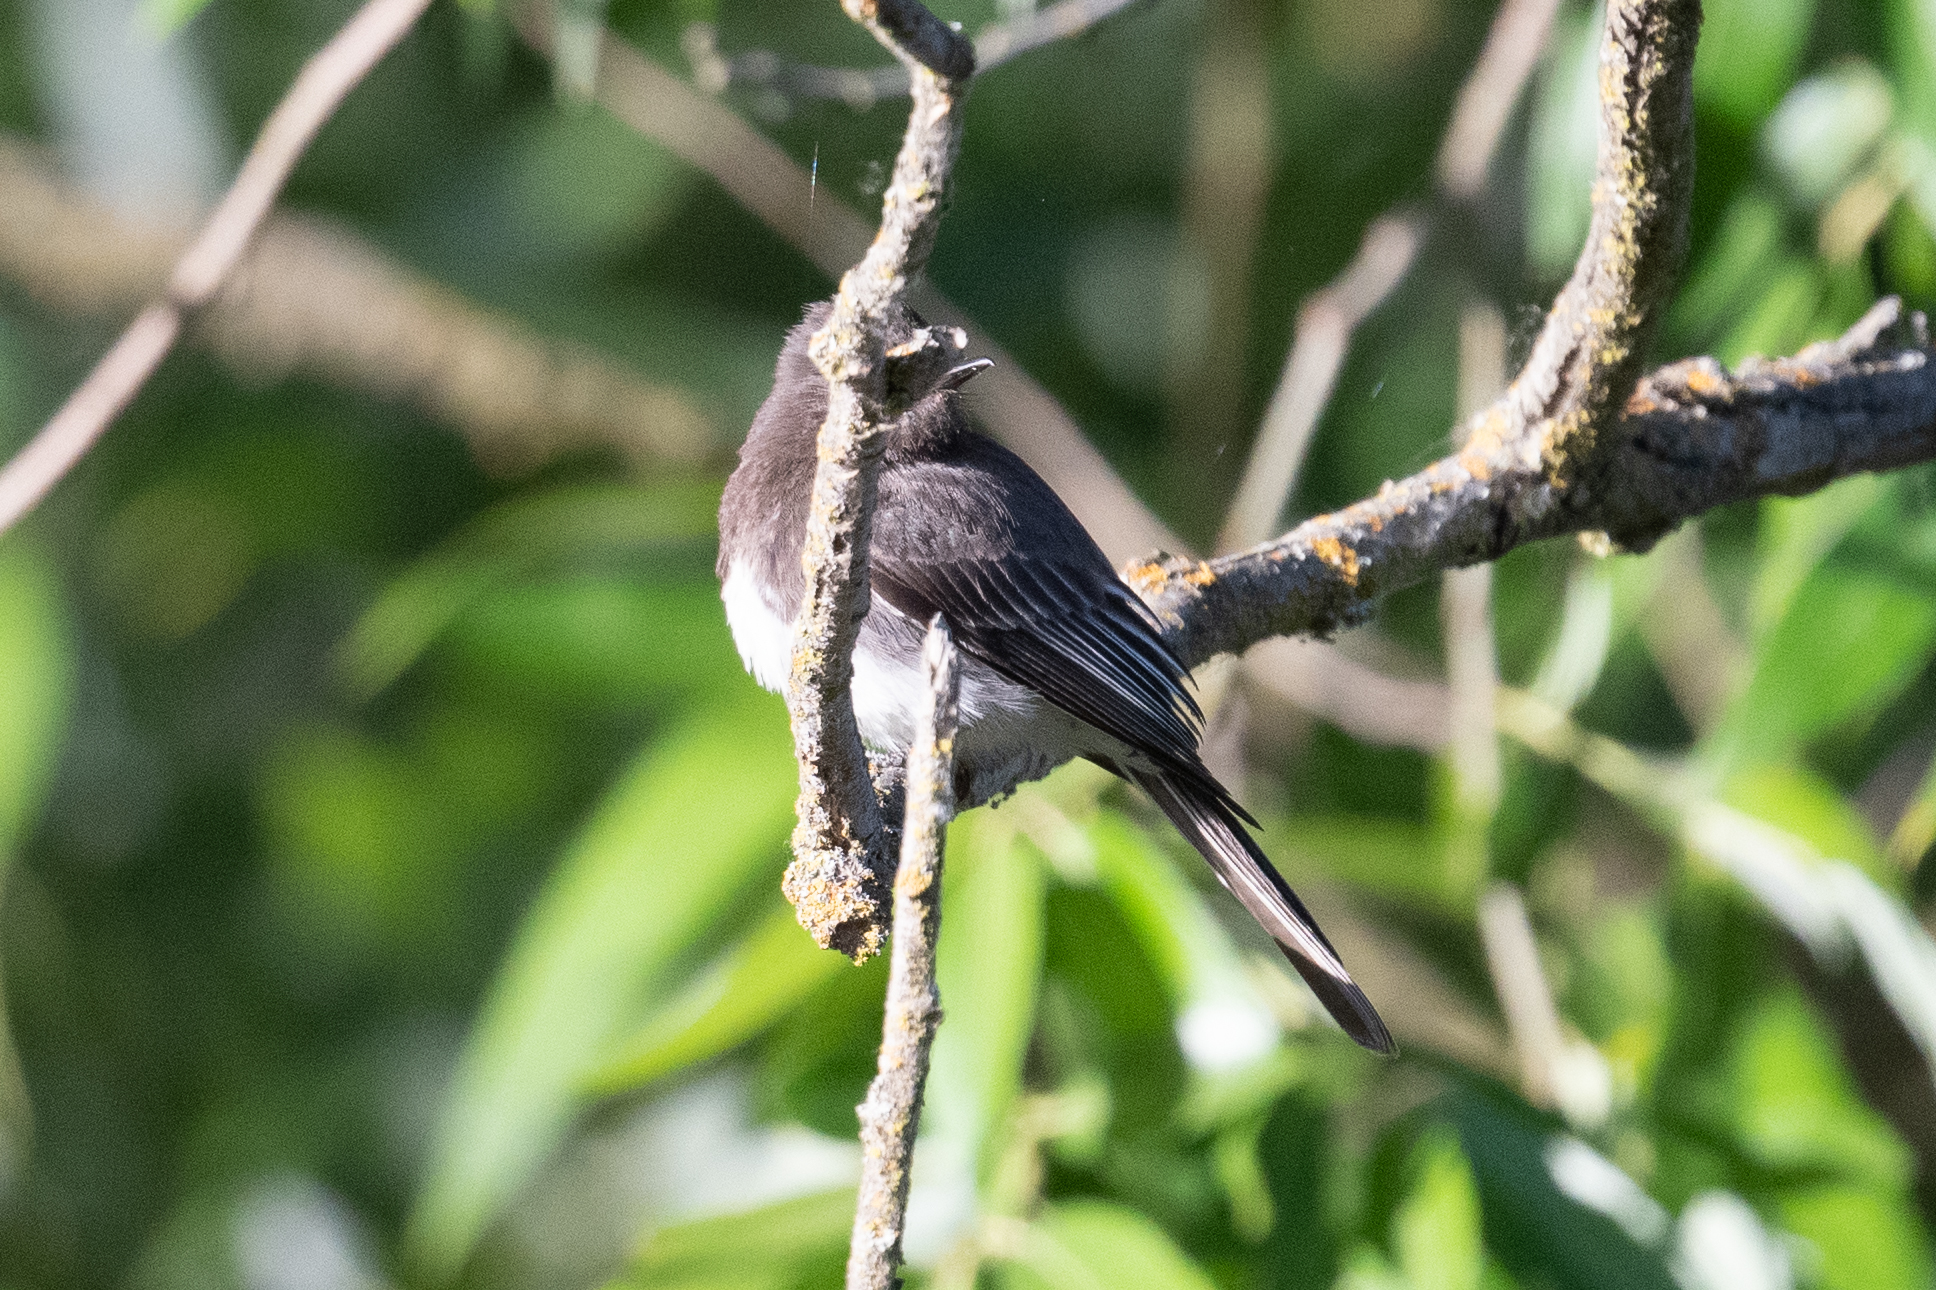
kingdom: Animalia
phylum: Chordata
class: Aves
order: Passeriformes
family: Tyrannidae
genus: Sayornis
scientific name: Sayornis nigricans
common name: Black phoebe
